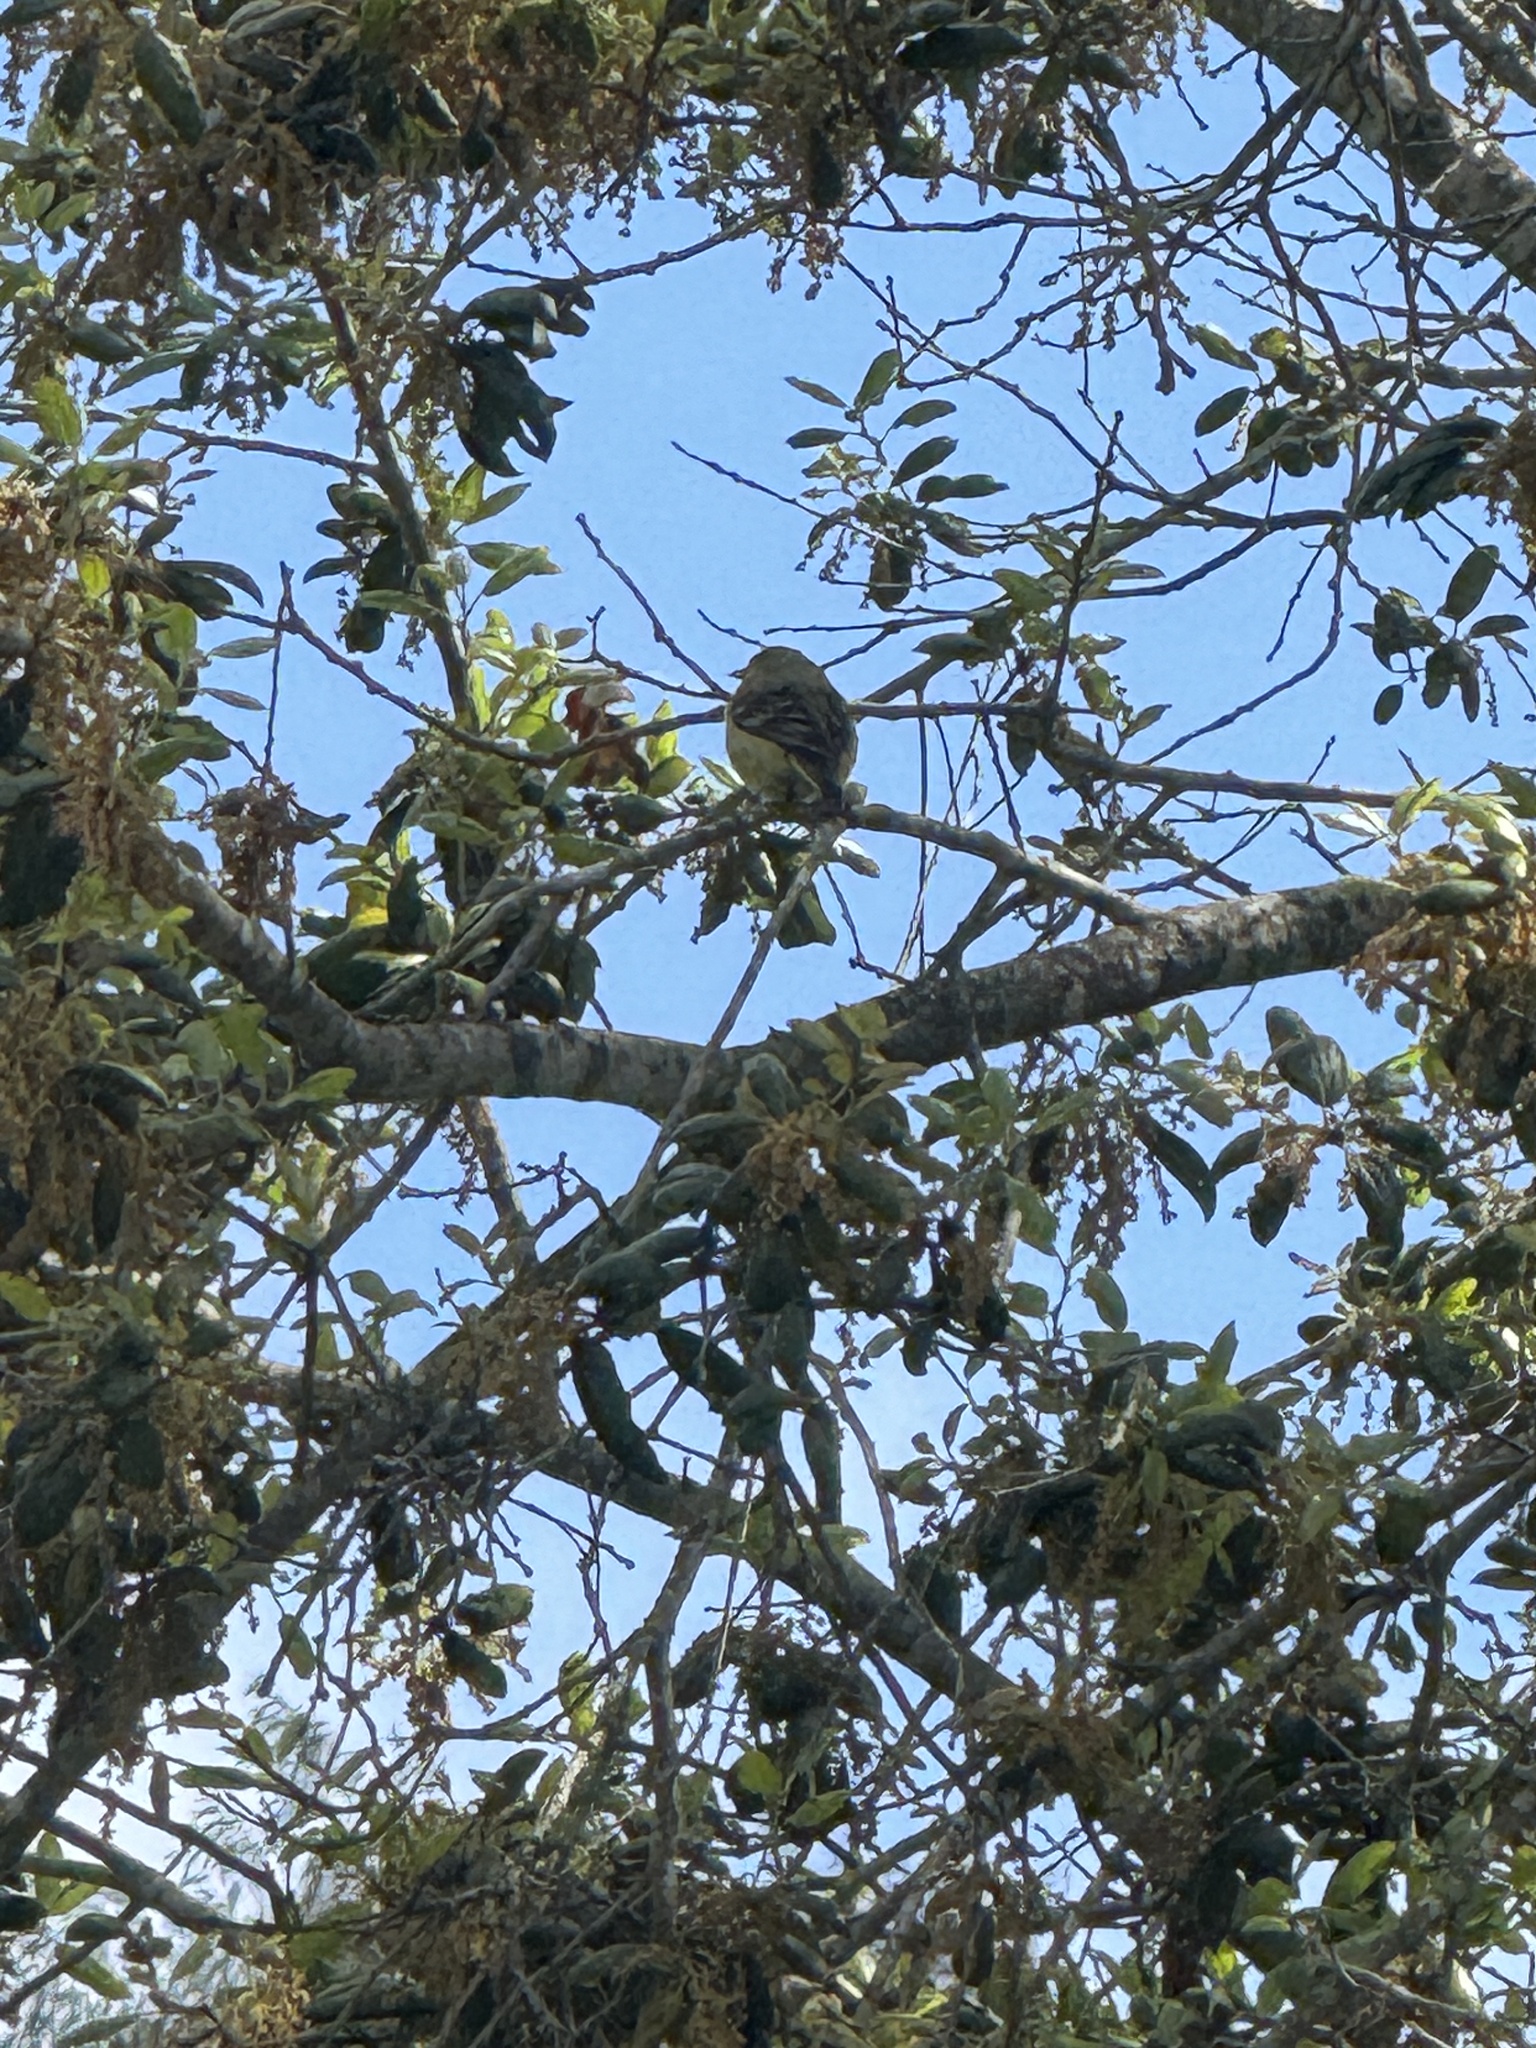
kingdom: Animalia
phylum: Chordata
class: Aves
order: Passeriformes
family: Fringillidae
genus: Spinus
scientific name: Spinus psaltria
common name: Lesser goldfinch
